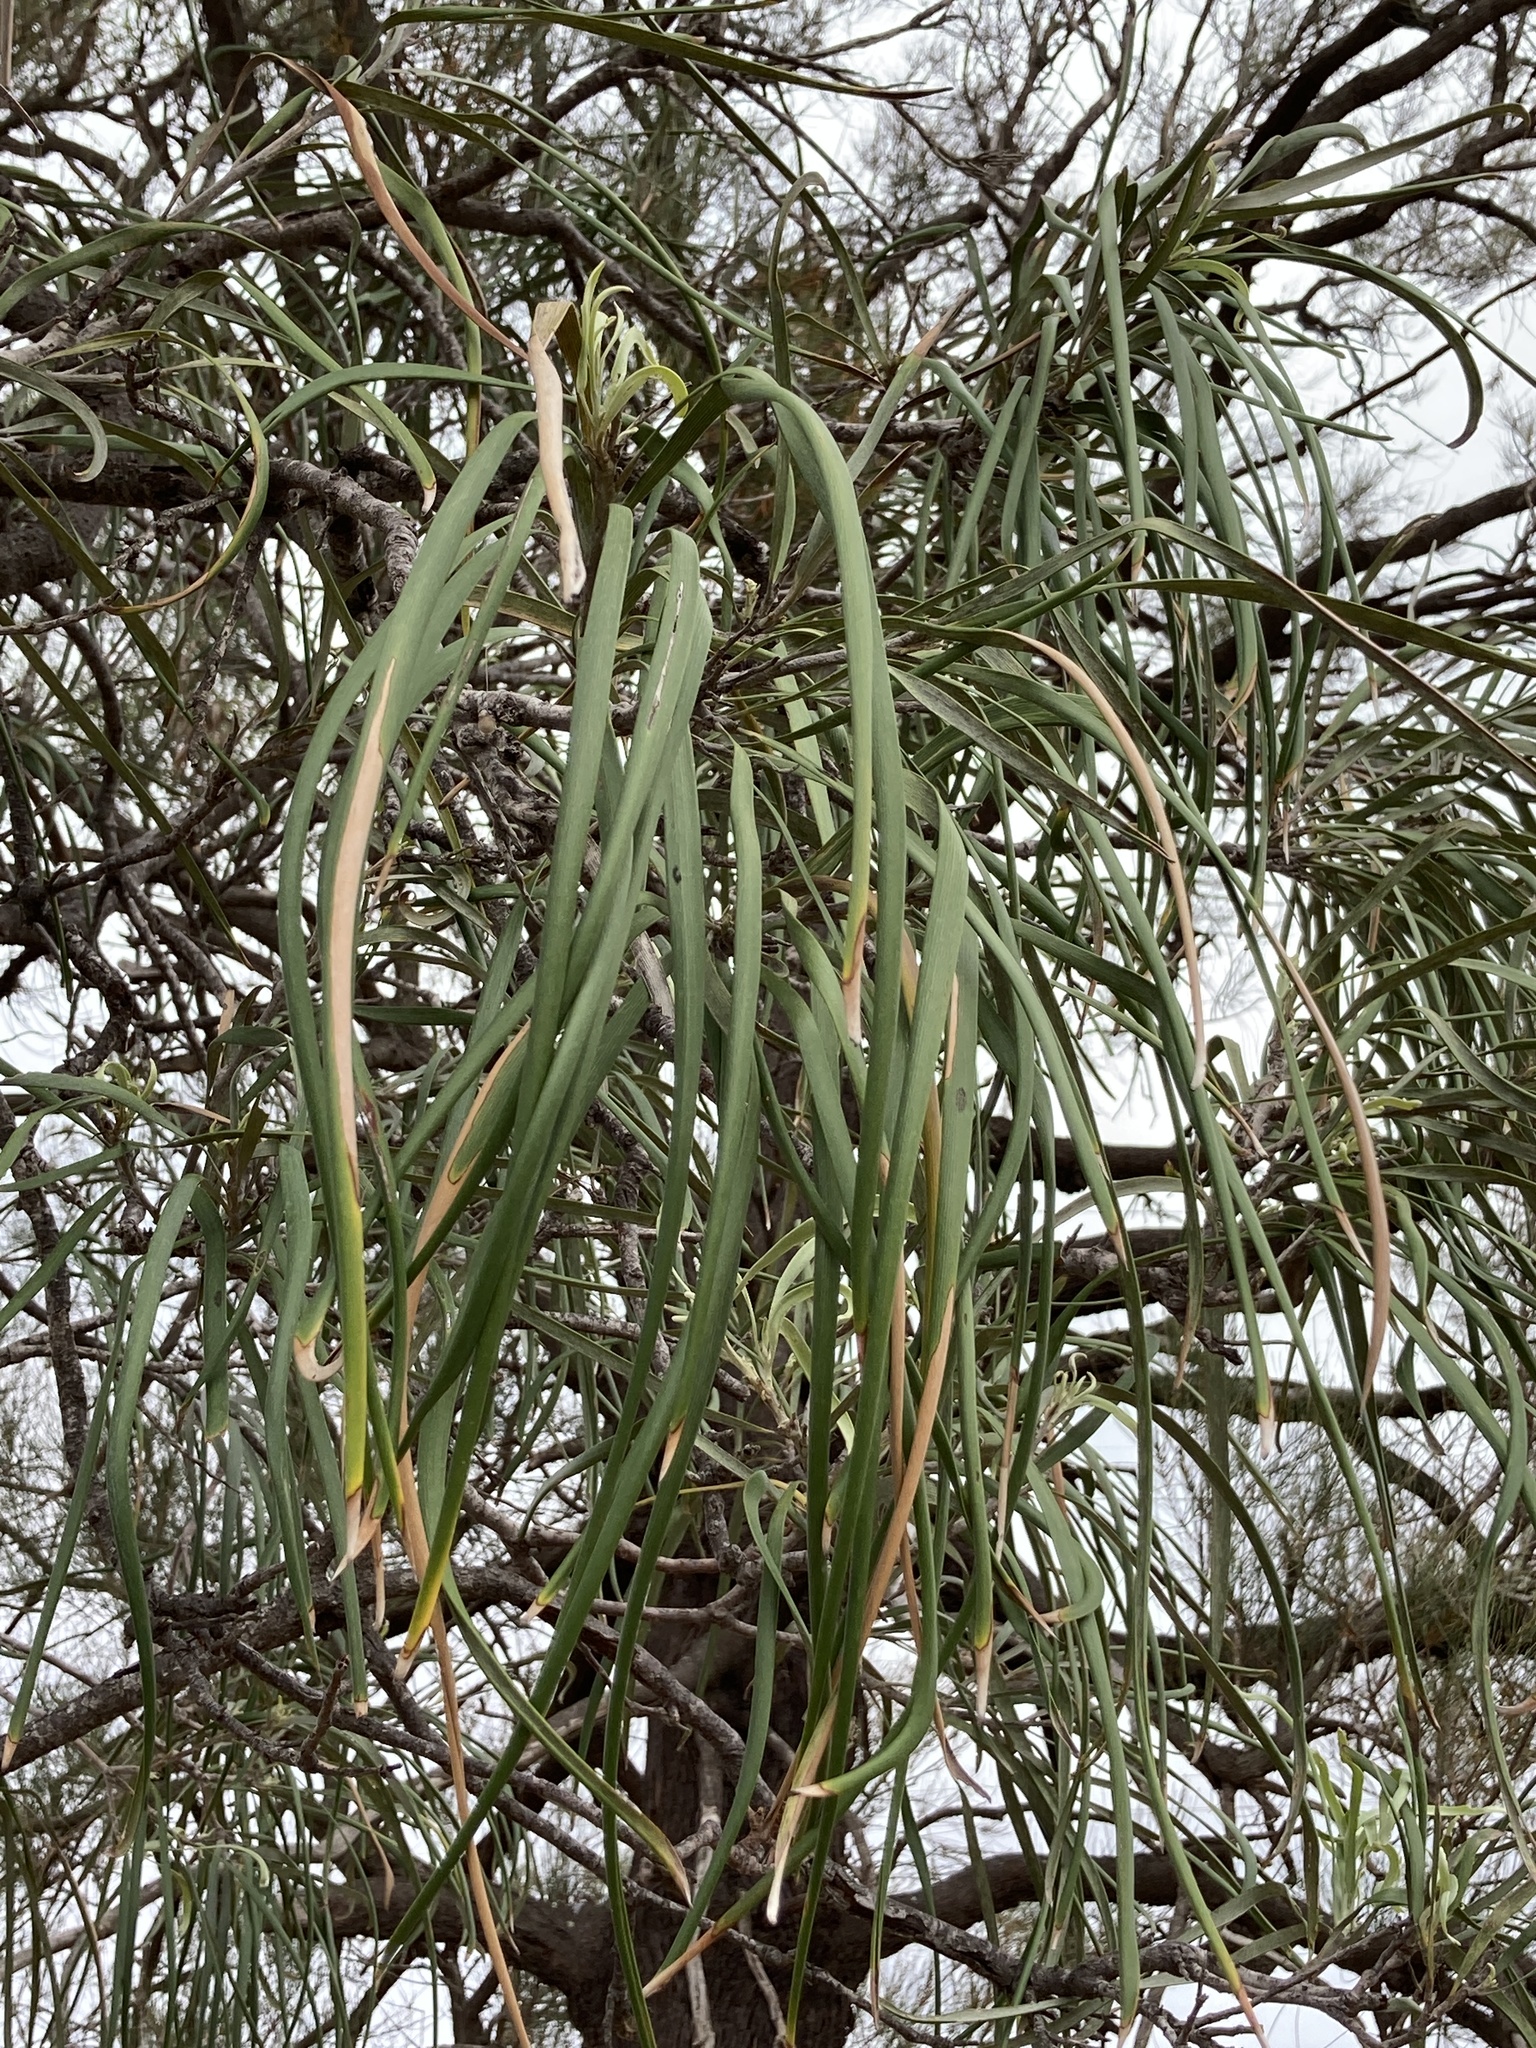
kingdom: Plantae
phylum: Tracheophyta
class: Magnoliopsida
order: Proteales
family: Proteaceae
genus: Grevillea
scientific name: Grevillea striata
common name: Beefwood
